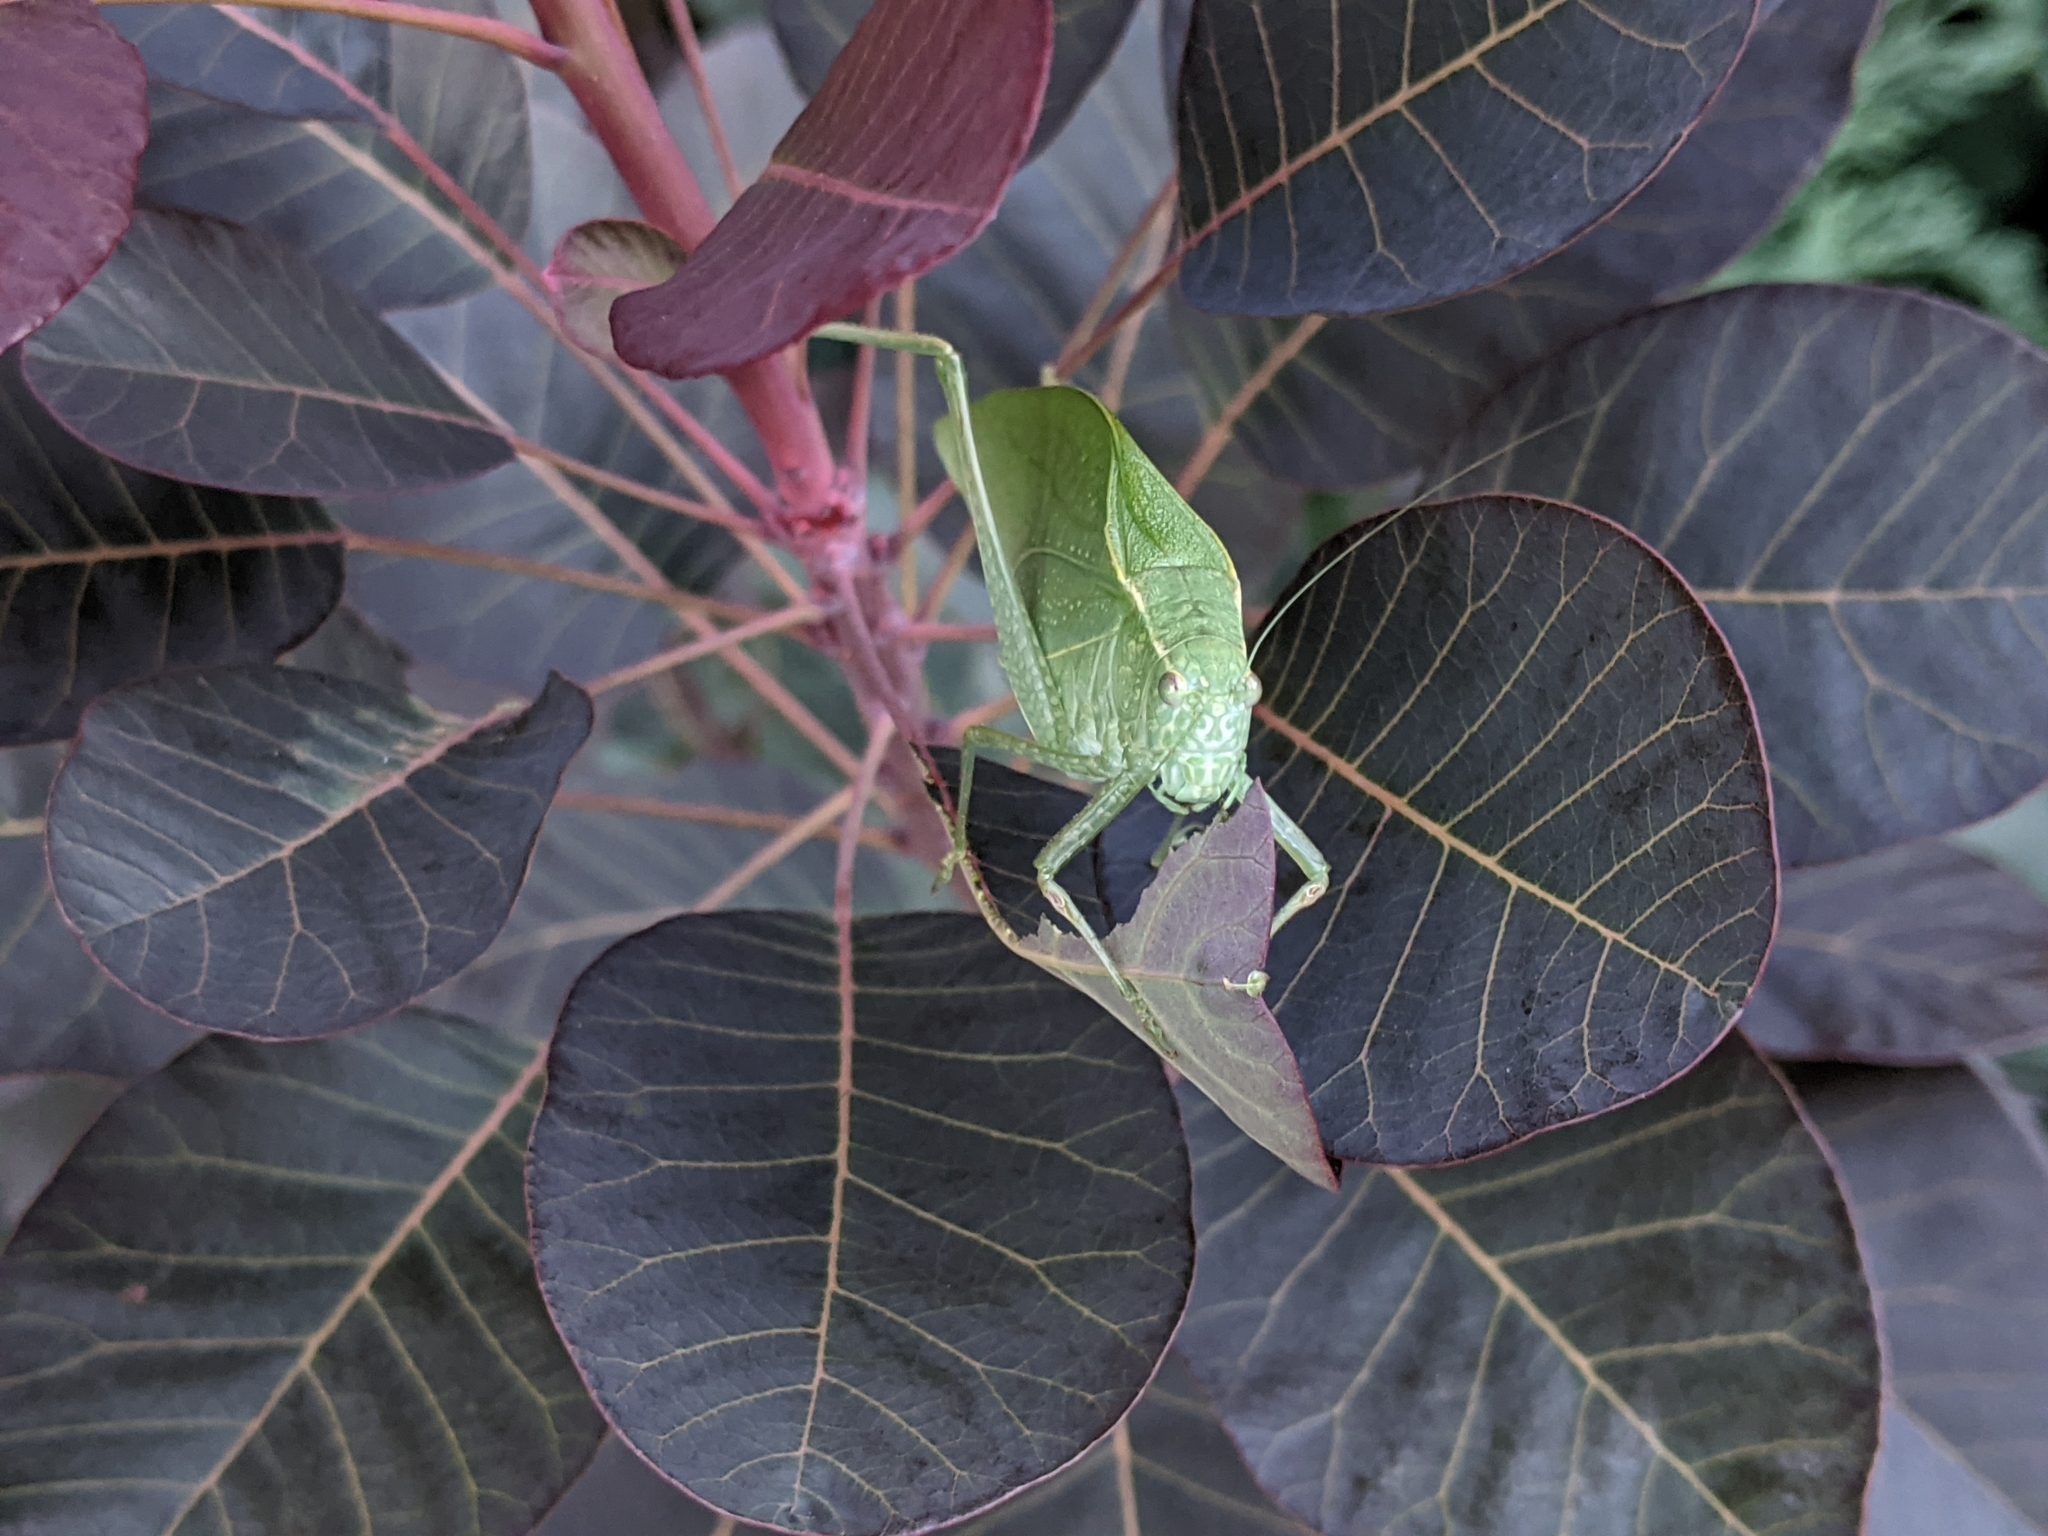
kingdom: Animalia
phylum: Arthropoda
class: Insecta
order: Orthoptera
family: Tettigoniidae
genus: Microcentrum
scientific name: Microcentrum rhombifolium
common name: Broad-winged katydid
